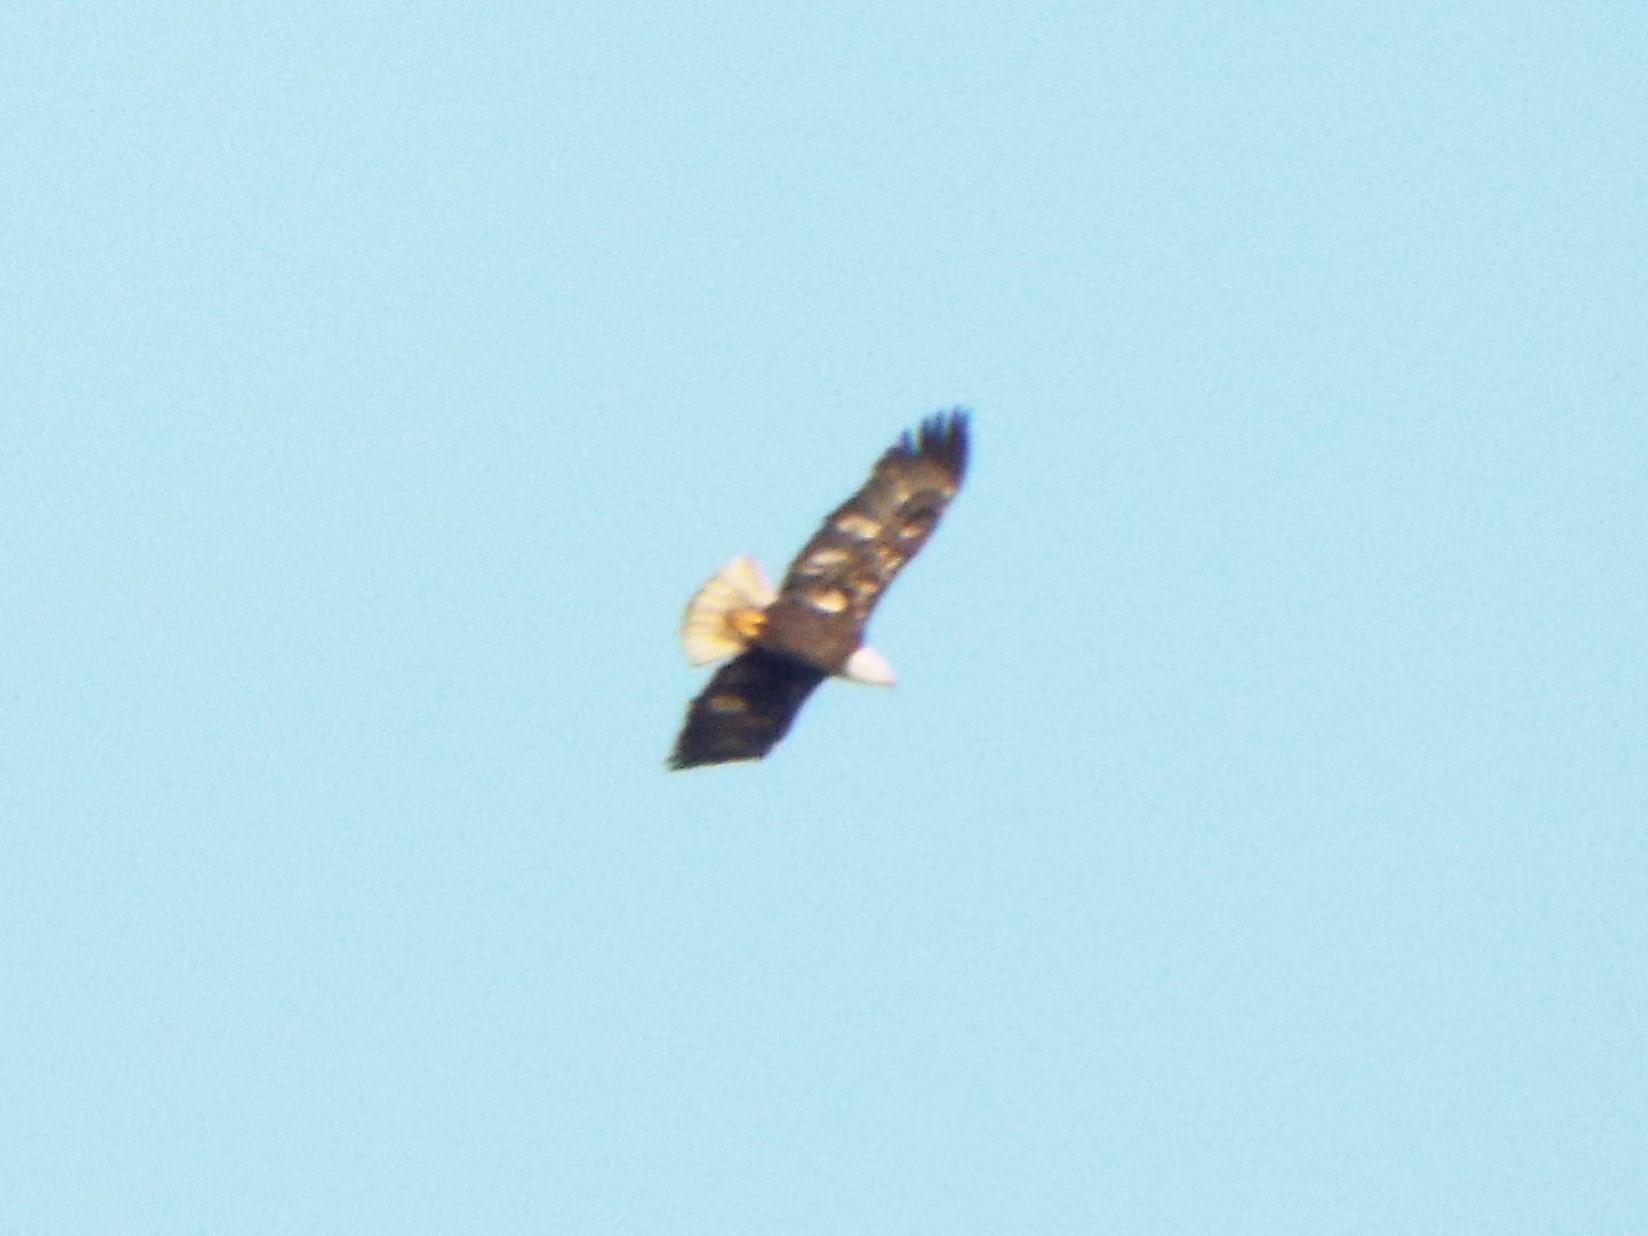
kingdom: Animalia
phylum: Chordata
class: Aves
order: Accipitriformes
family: Accipitridae
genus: Haliaeetus
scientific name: Haliaeetus leucocephalus
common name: Bald eagle
